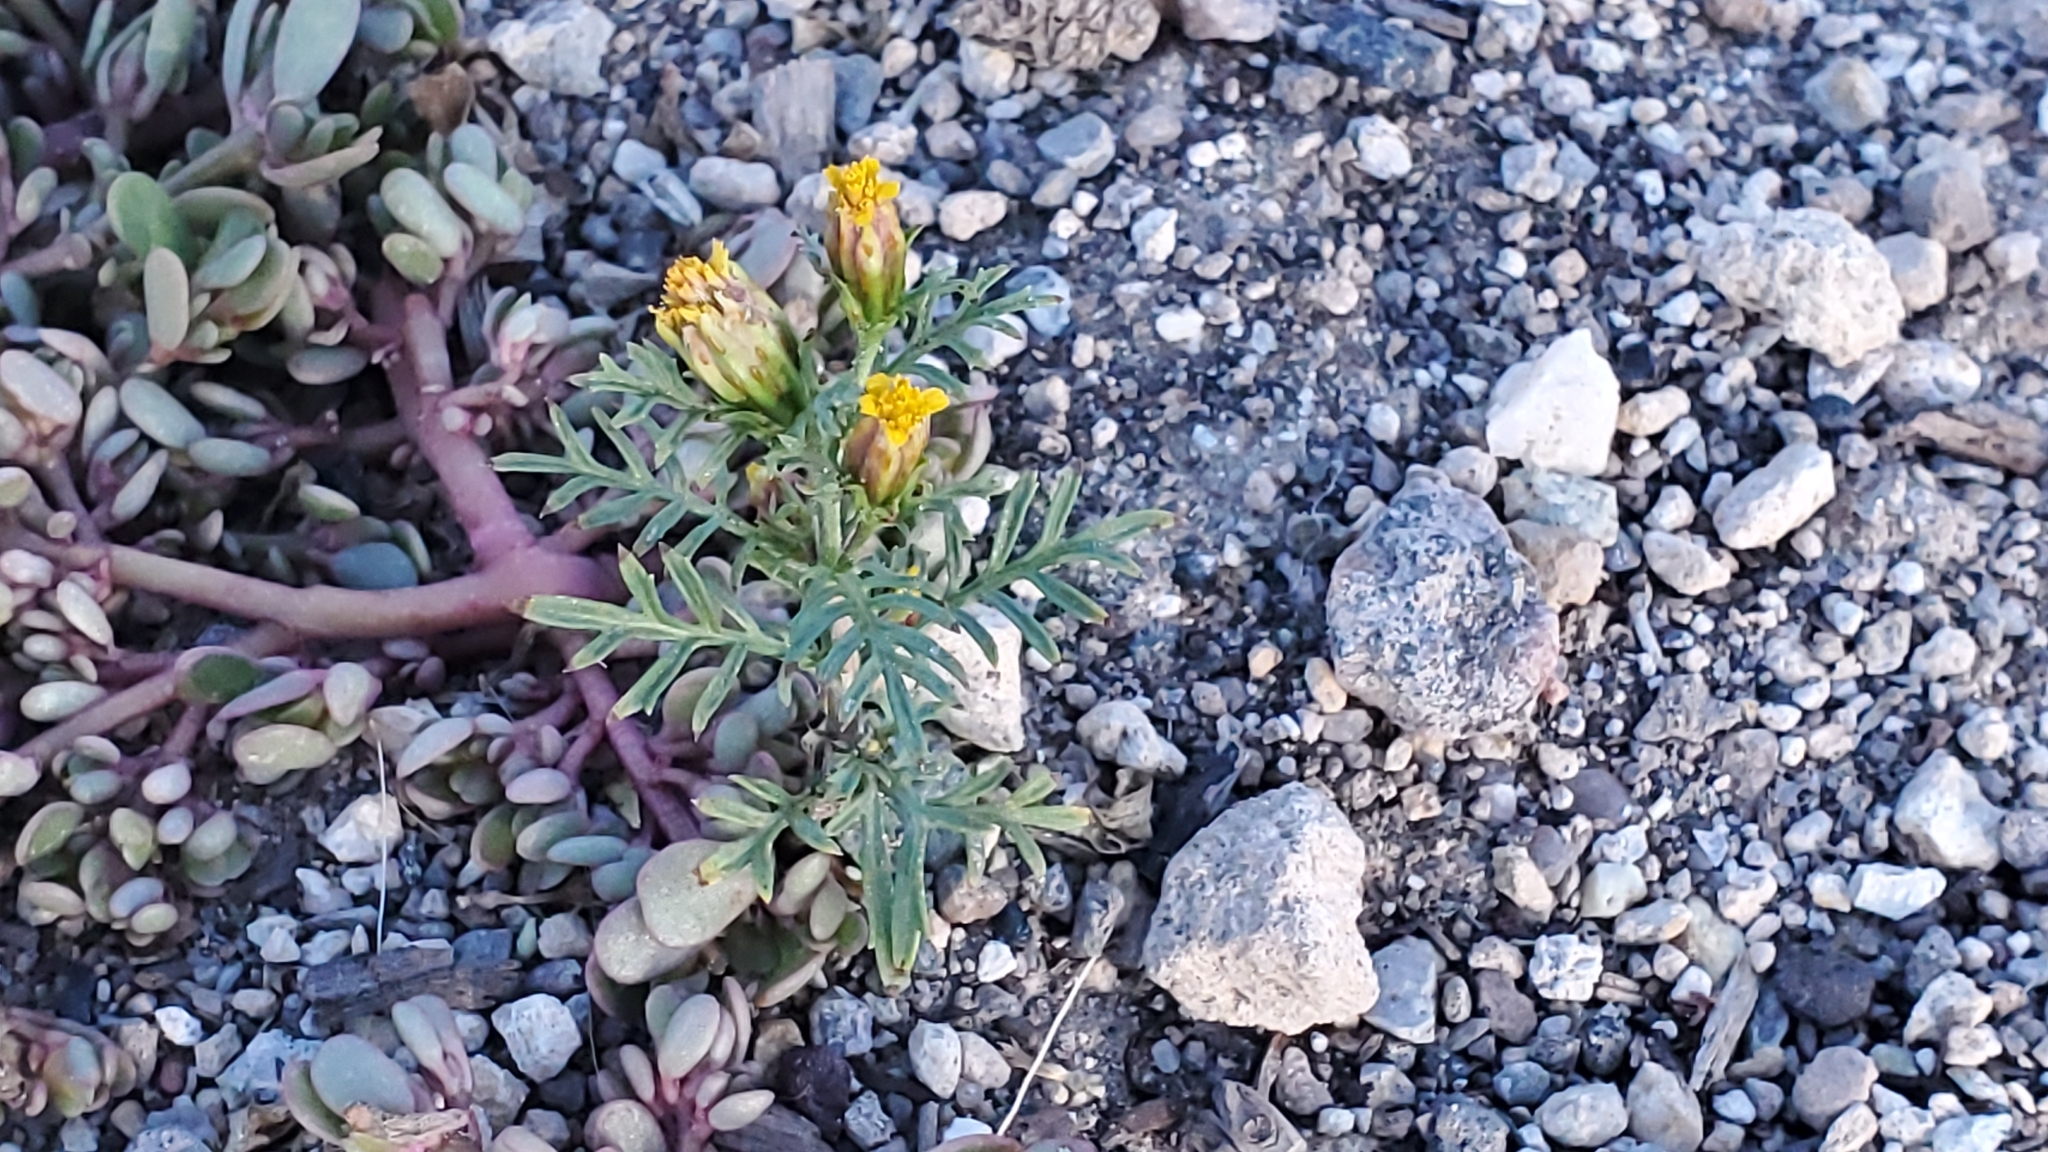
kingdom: Plantae
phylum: Tracheophyta
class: Magnoliopsida
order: Asterales
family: Asteraceae
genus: Dyssodia
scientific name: Dyssodia papposa
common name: Dogweed
